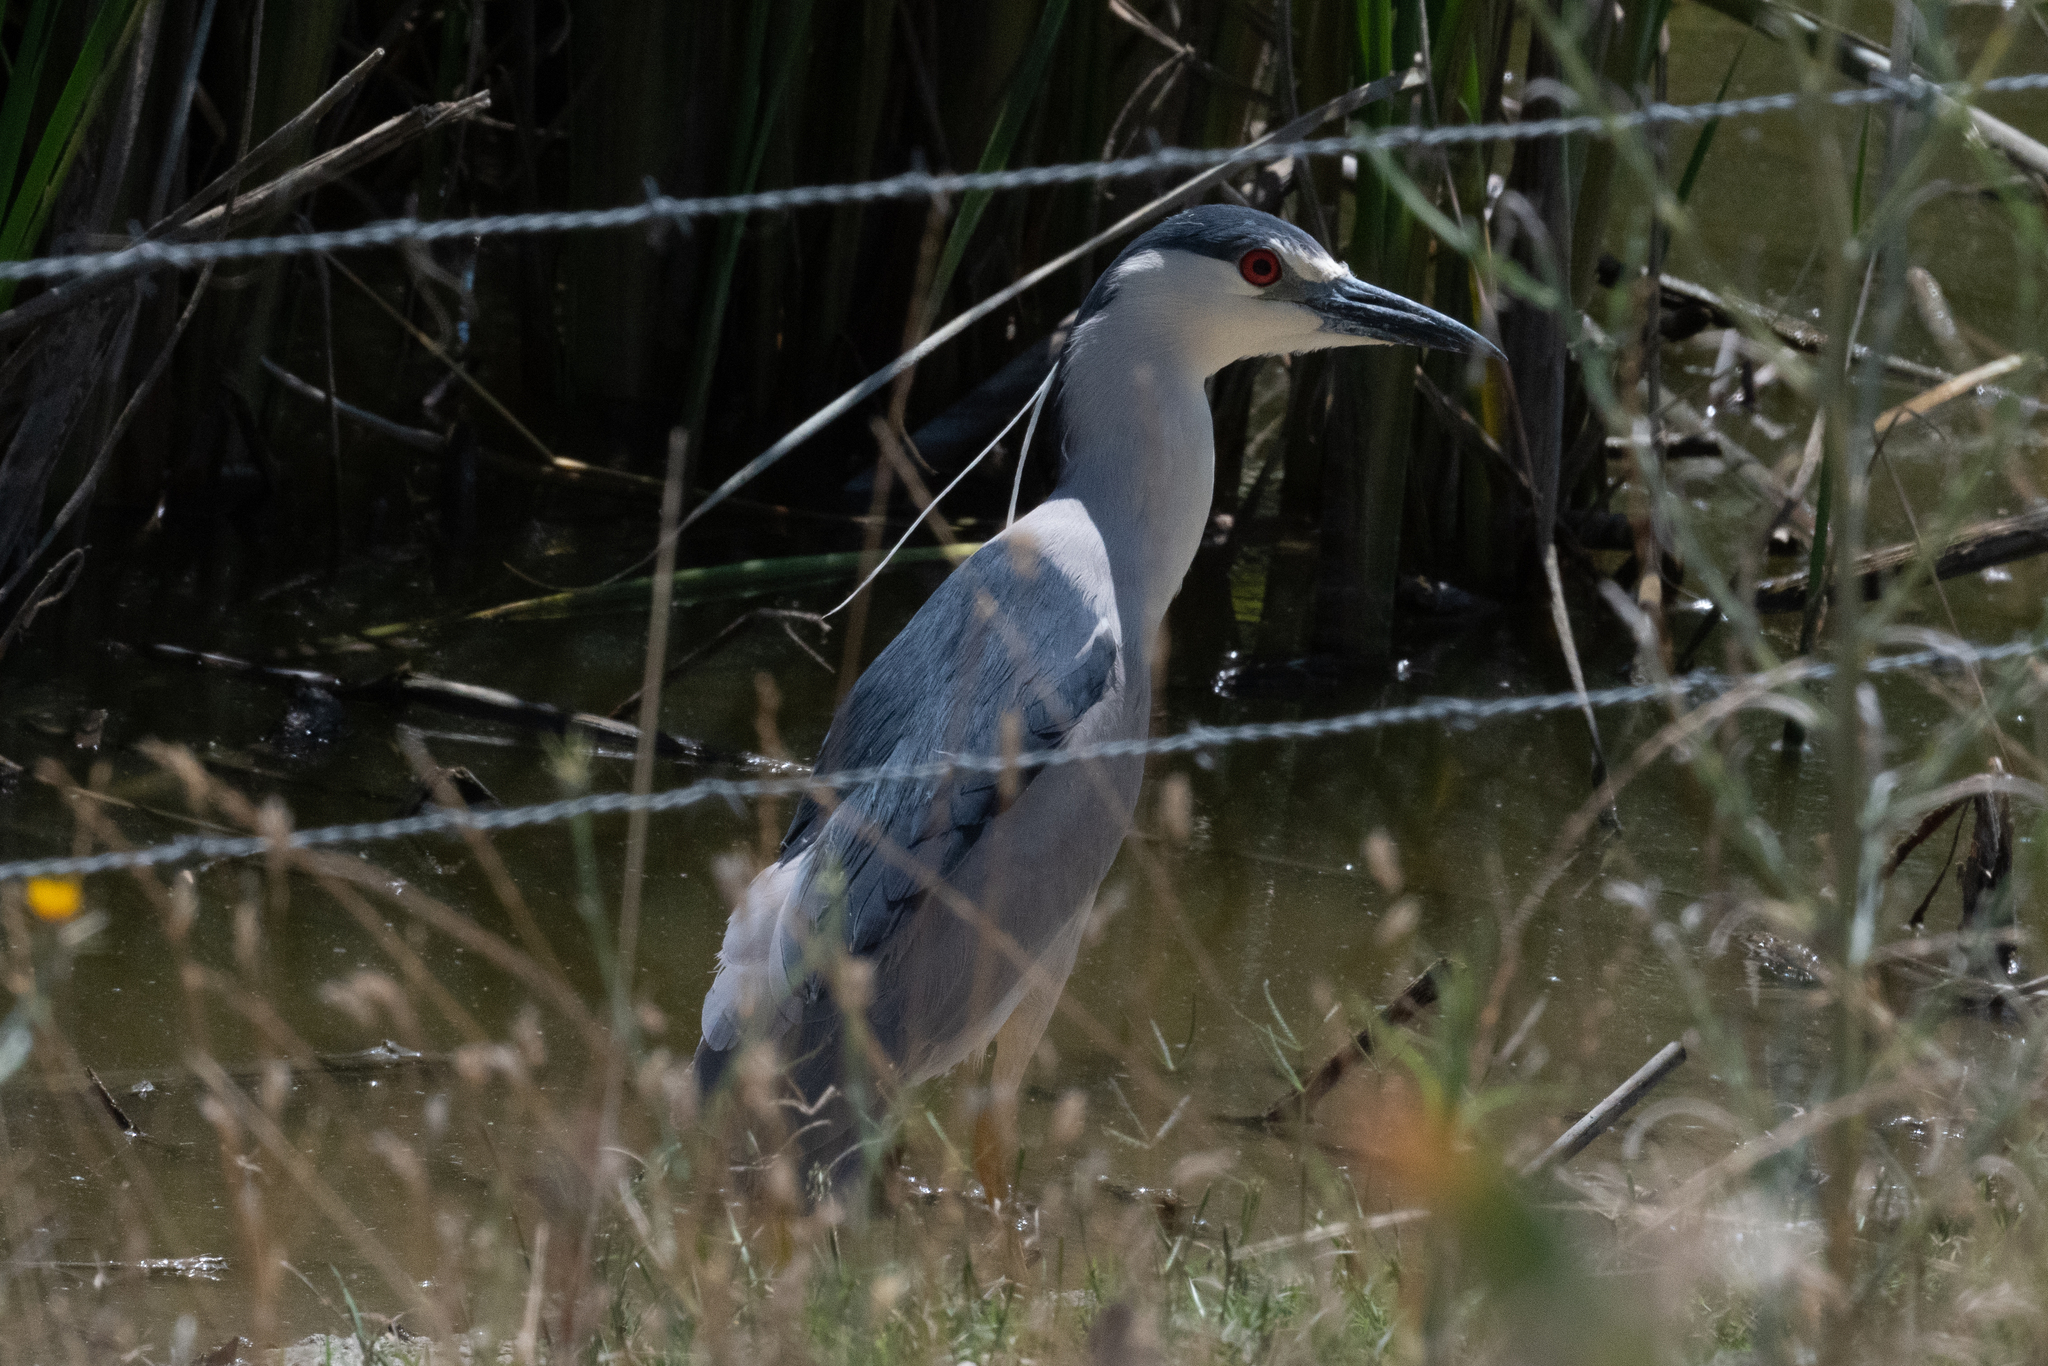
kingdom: Animalia
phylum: Chordata
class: Aves
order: Pelecaniformes
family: Ardeidae
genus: Nycticorax
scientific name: Nycticorax nycticorax
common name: Black-crowned night heron
